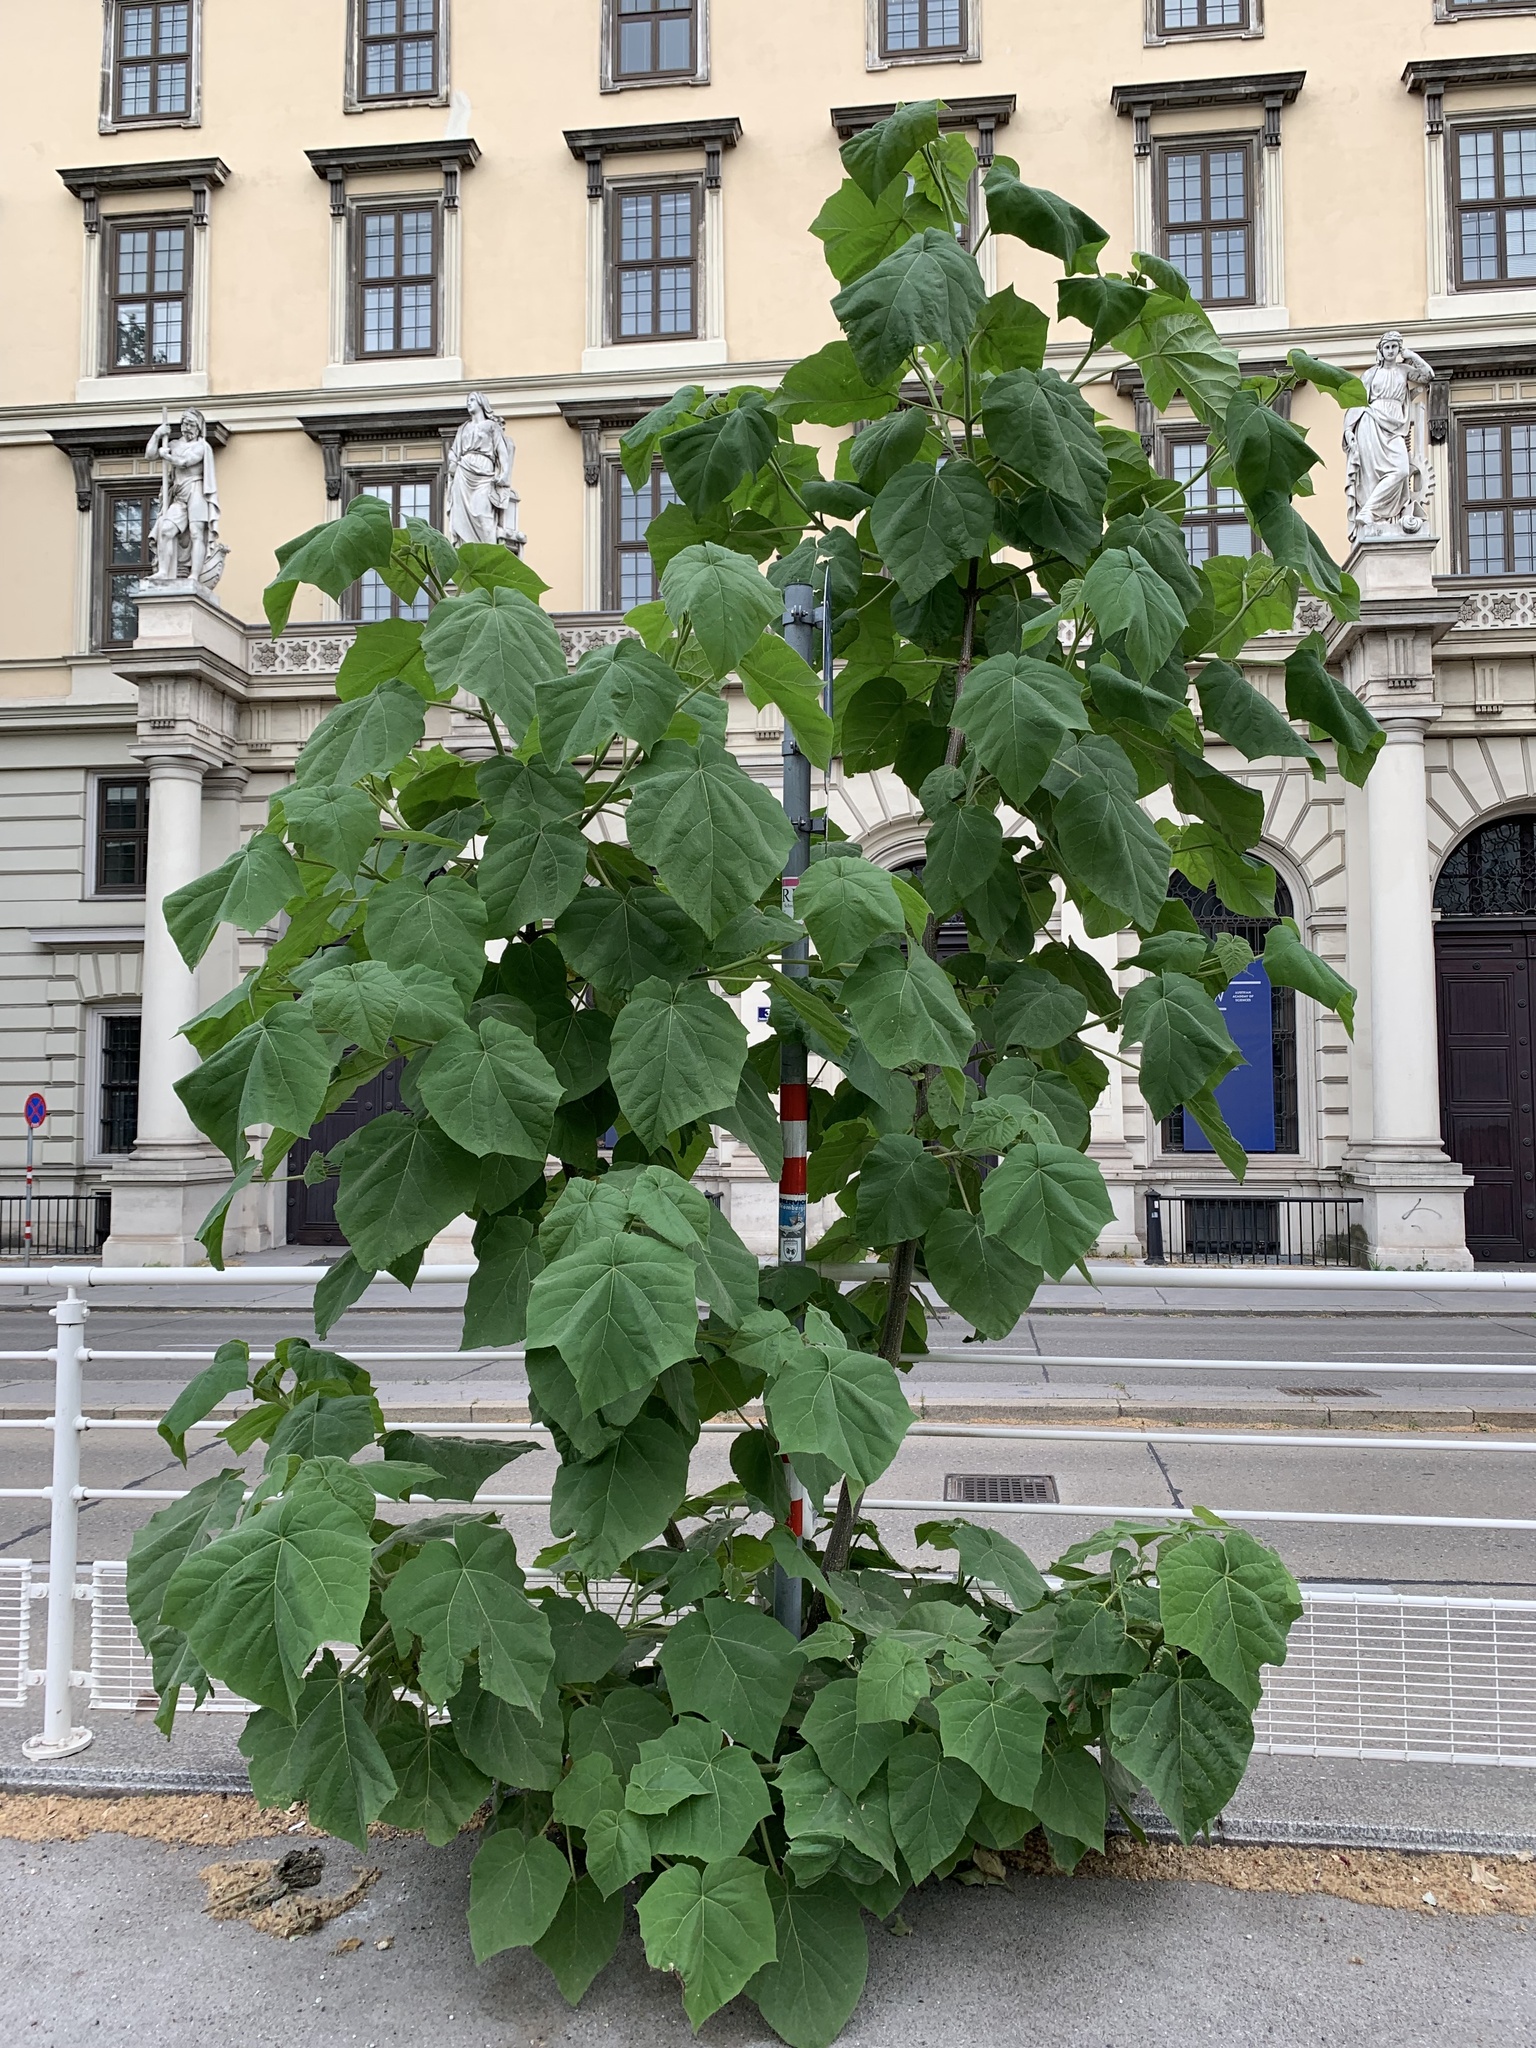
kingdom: Plantae
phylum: Tracheophyta
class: Magnoliopsida
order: Lamiales
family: Paulowniaceae
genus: Paulownia
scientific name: Paulownia tomentosa
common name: Foxglove-tree
